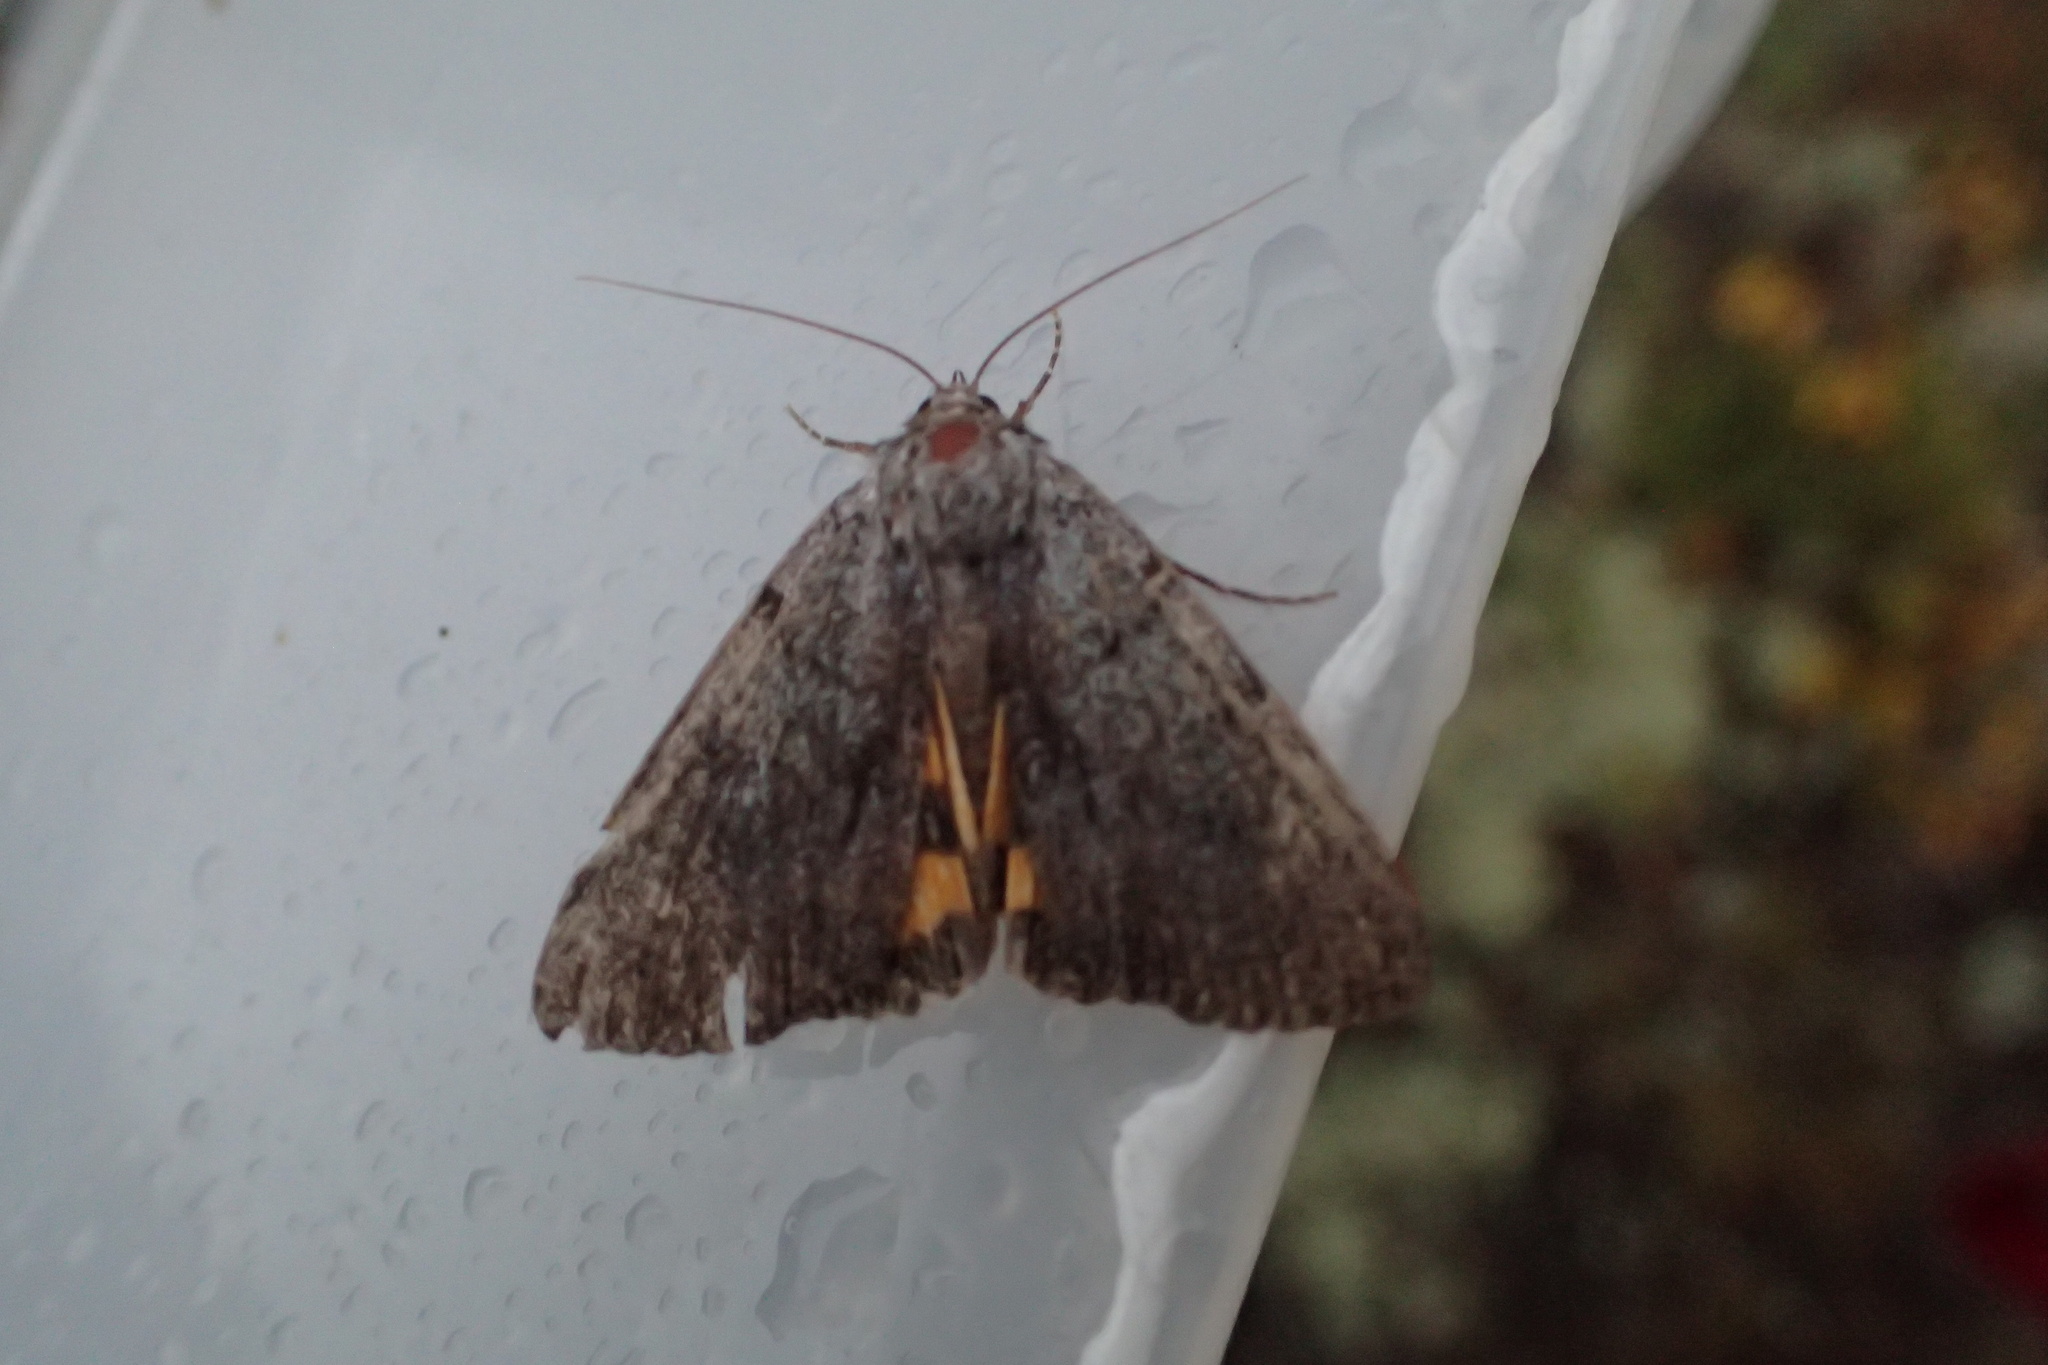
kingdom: Animalia
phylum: Arthropoda
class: Insecta
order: Lepidoptera
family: Erebidae
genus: Catocala
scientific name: Catocala sordida
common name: Sordid underwing
